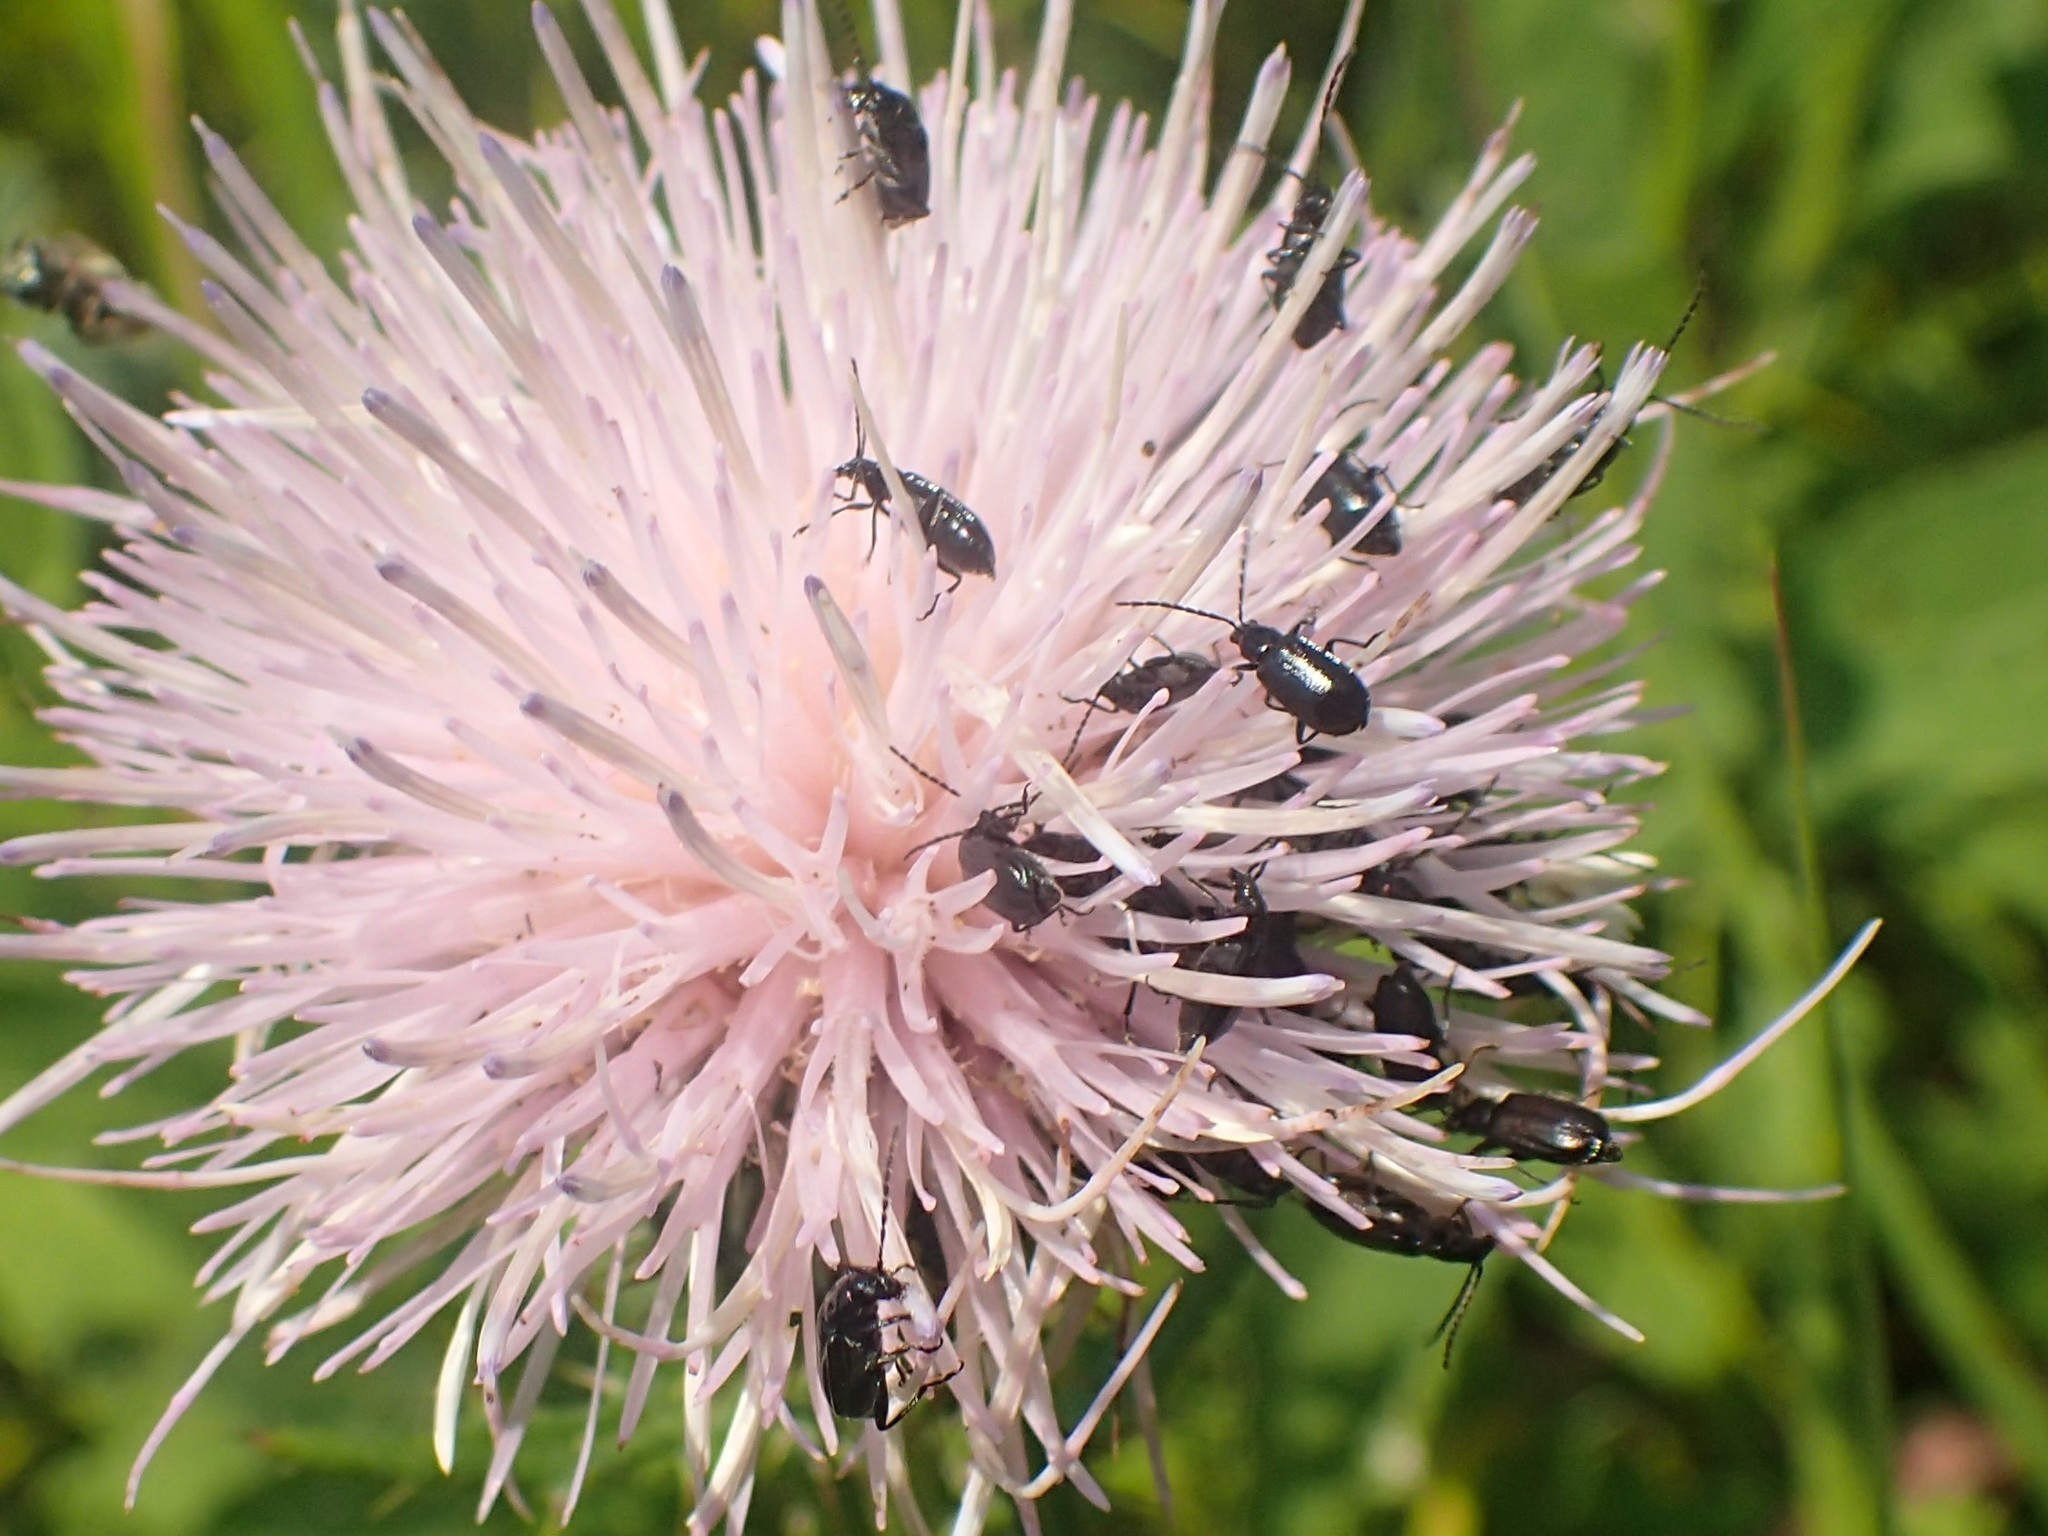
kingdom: Animalia
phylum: Arthropoda
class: Insecta
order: Coleoptera
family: Chrysomelidae
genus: Diabrotica
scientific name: Diabrotica cristata
